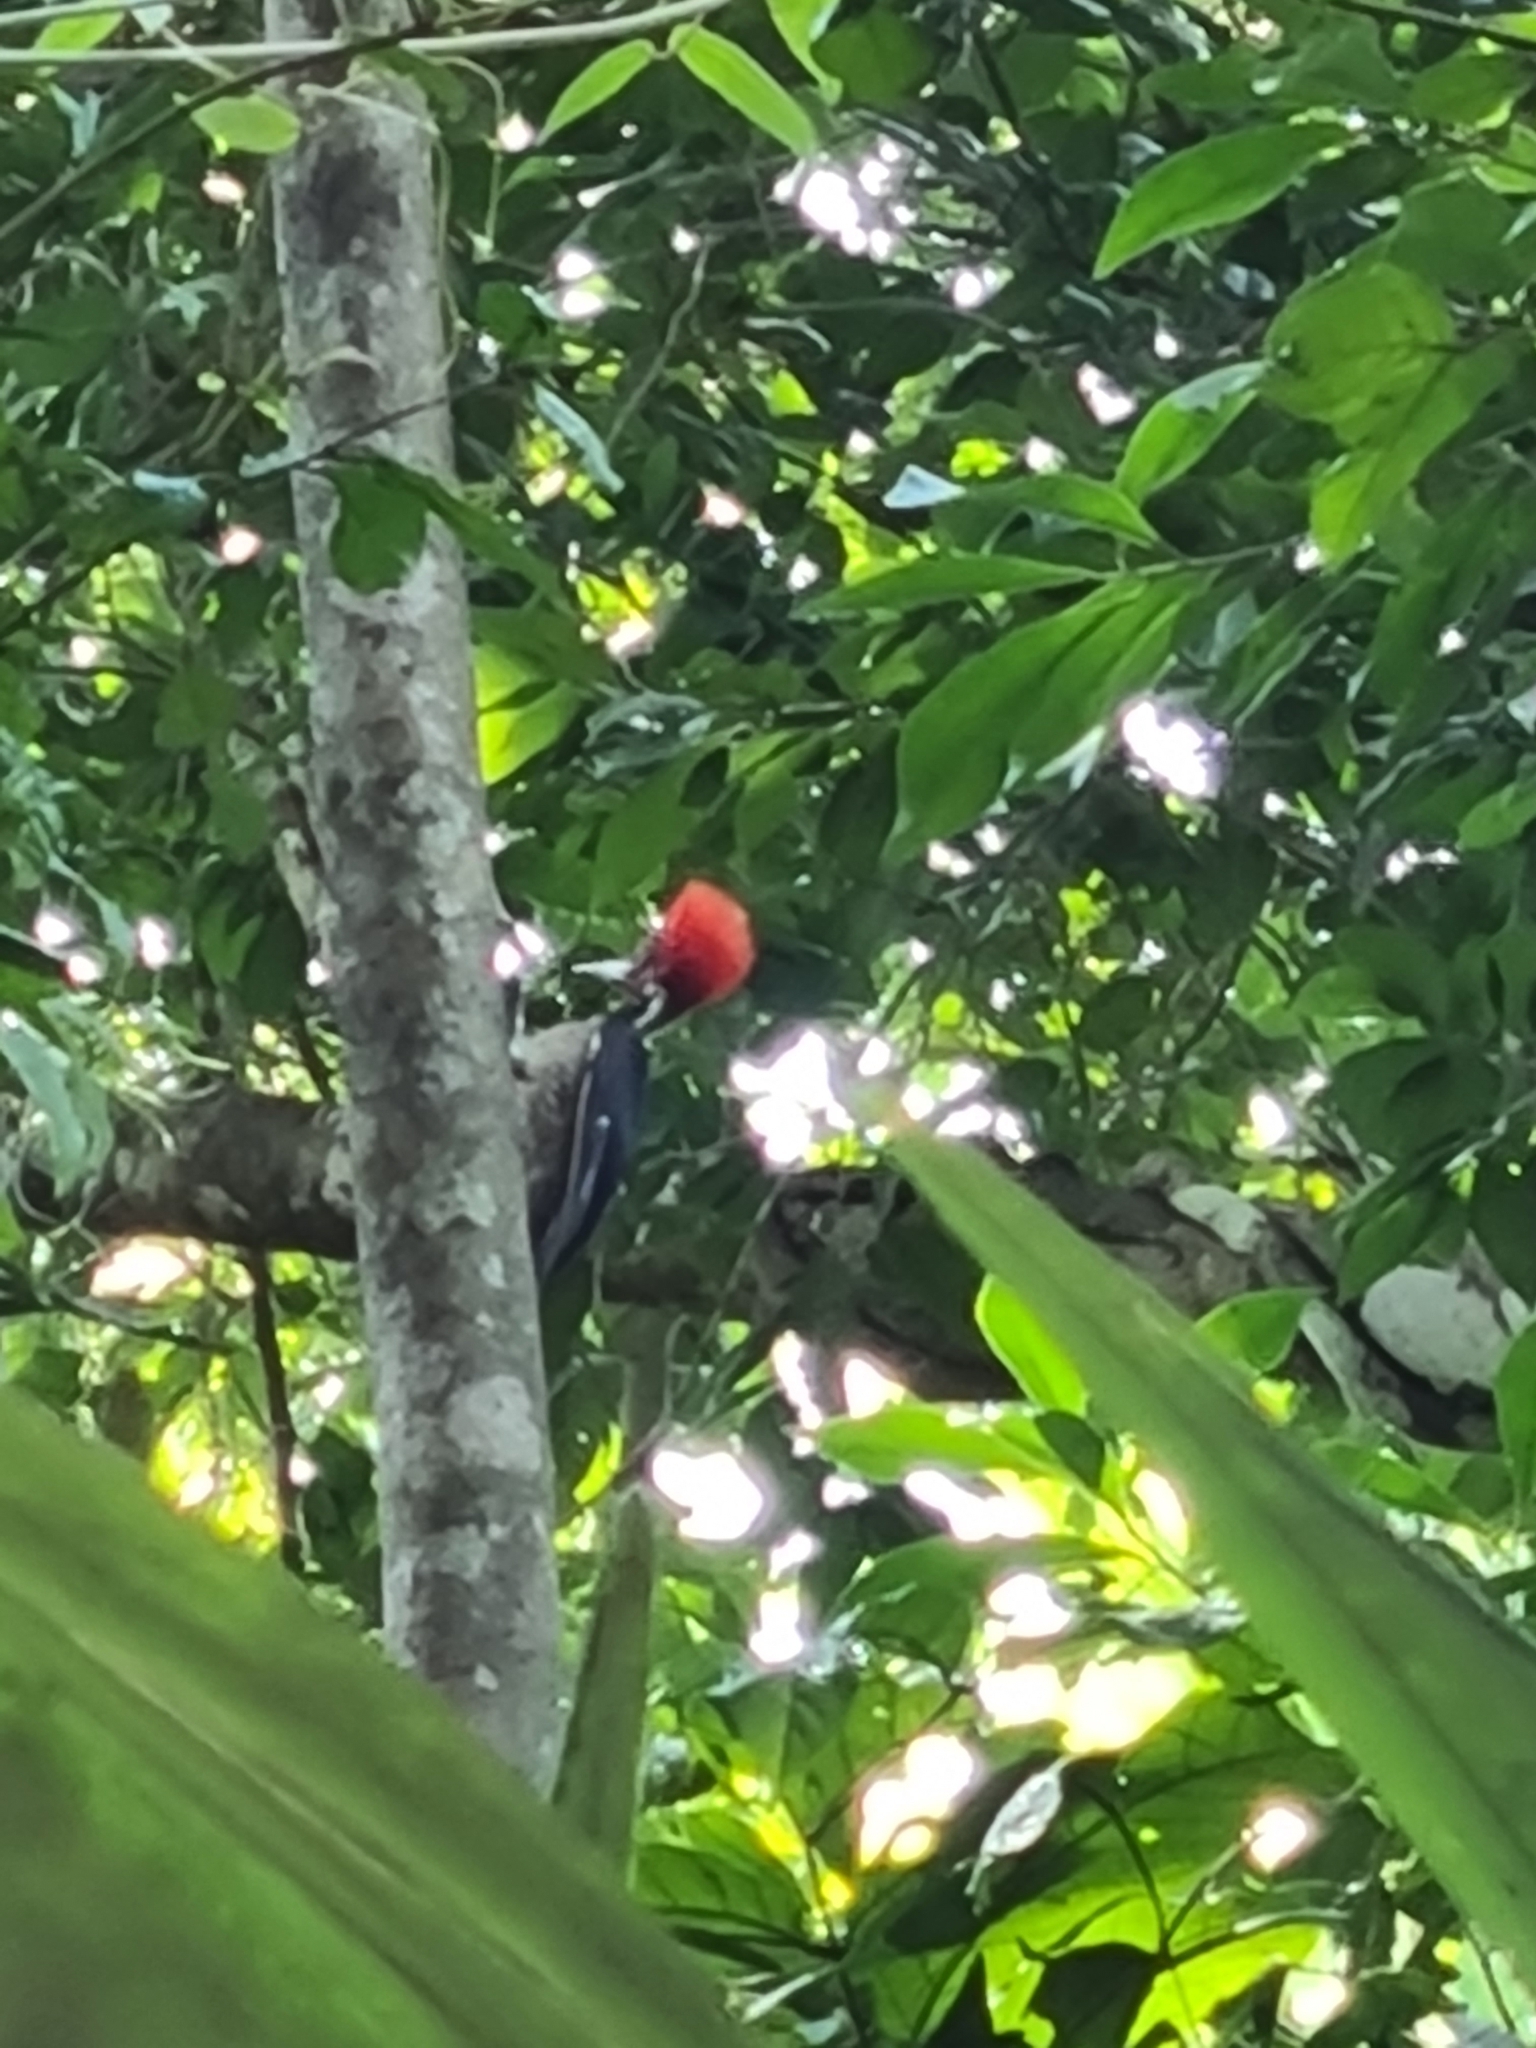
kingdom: Animalia
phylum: Chordata
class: Aves
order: Piciformes
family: Picidae
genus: Campephilus
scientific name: Campephilus guatemalensis
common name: Pale-billed woodpecker
